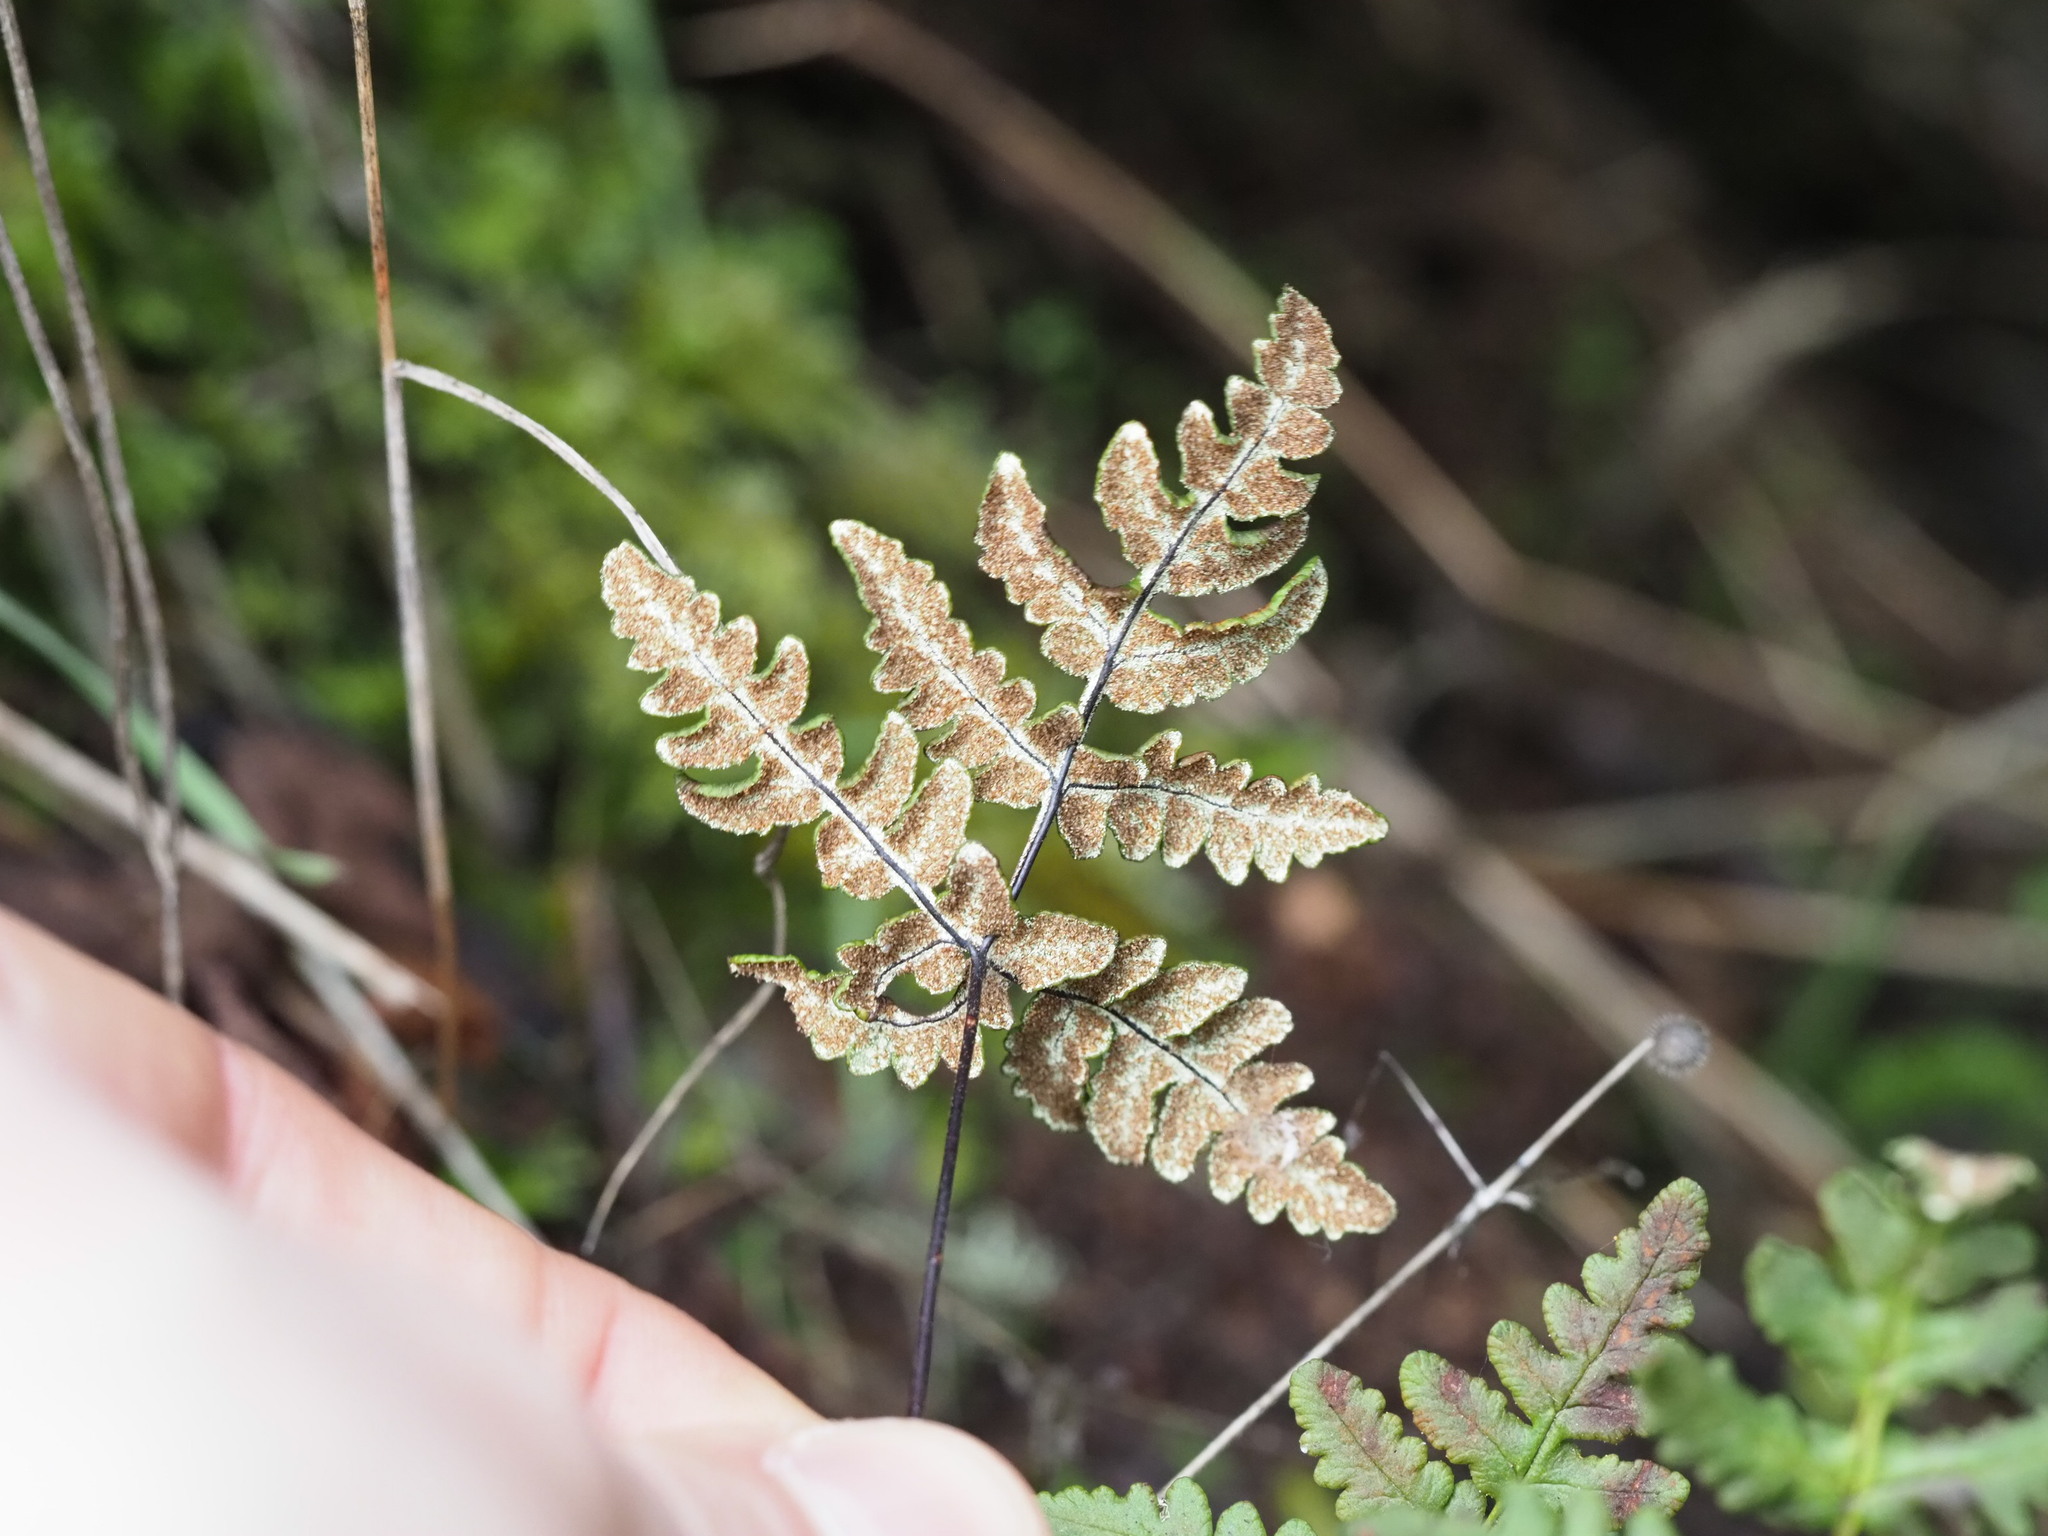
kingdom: Plantae
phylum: Tracheophyta
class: Polypodiopsida
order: Polypodiales
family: Pteridaceae
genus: Pentagramma
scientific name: Pentagramma triangularis
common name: Gold fern
